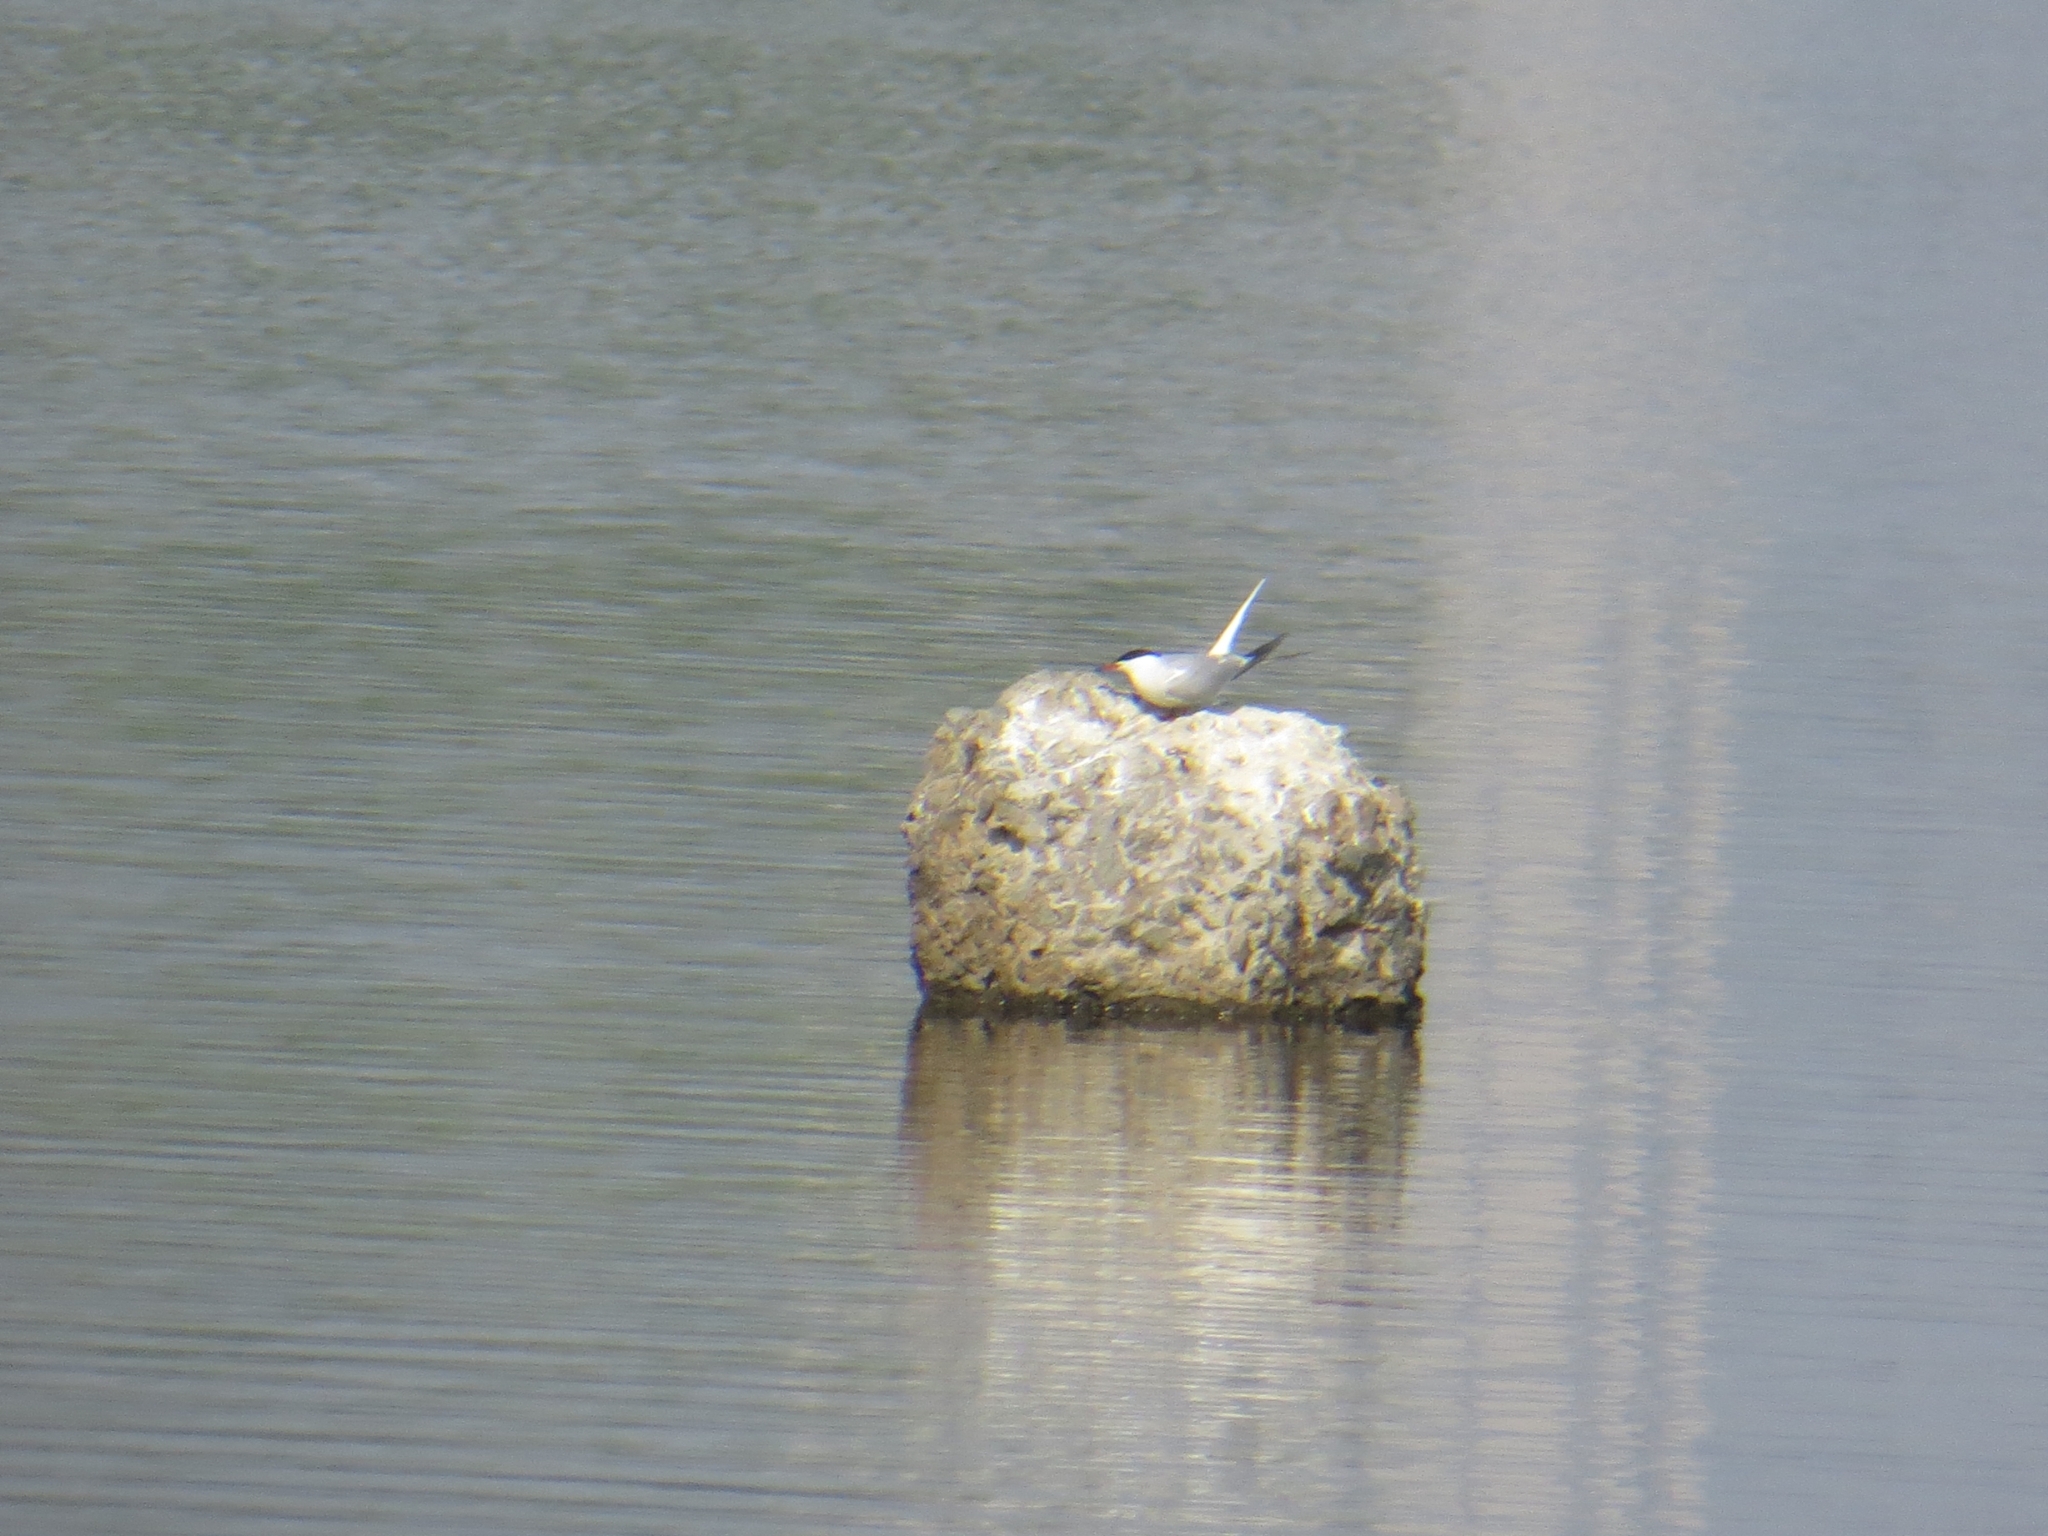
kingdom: Animalia
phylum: Chordata
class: Aves
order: Charadriiformes
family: Laridae
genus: Sterna
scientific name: Sterna hirundo
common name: Common tern
